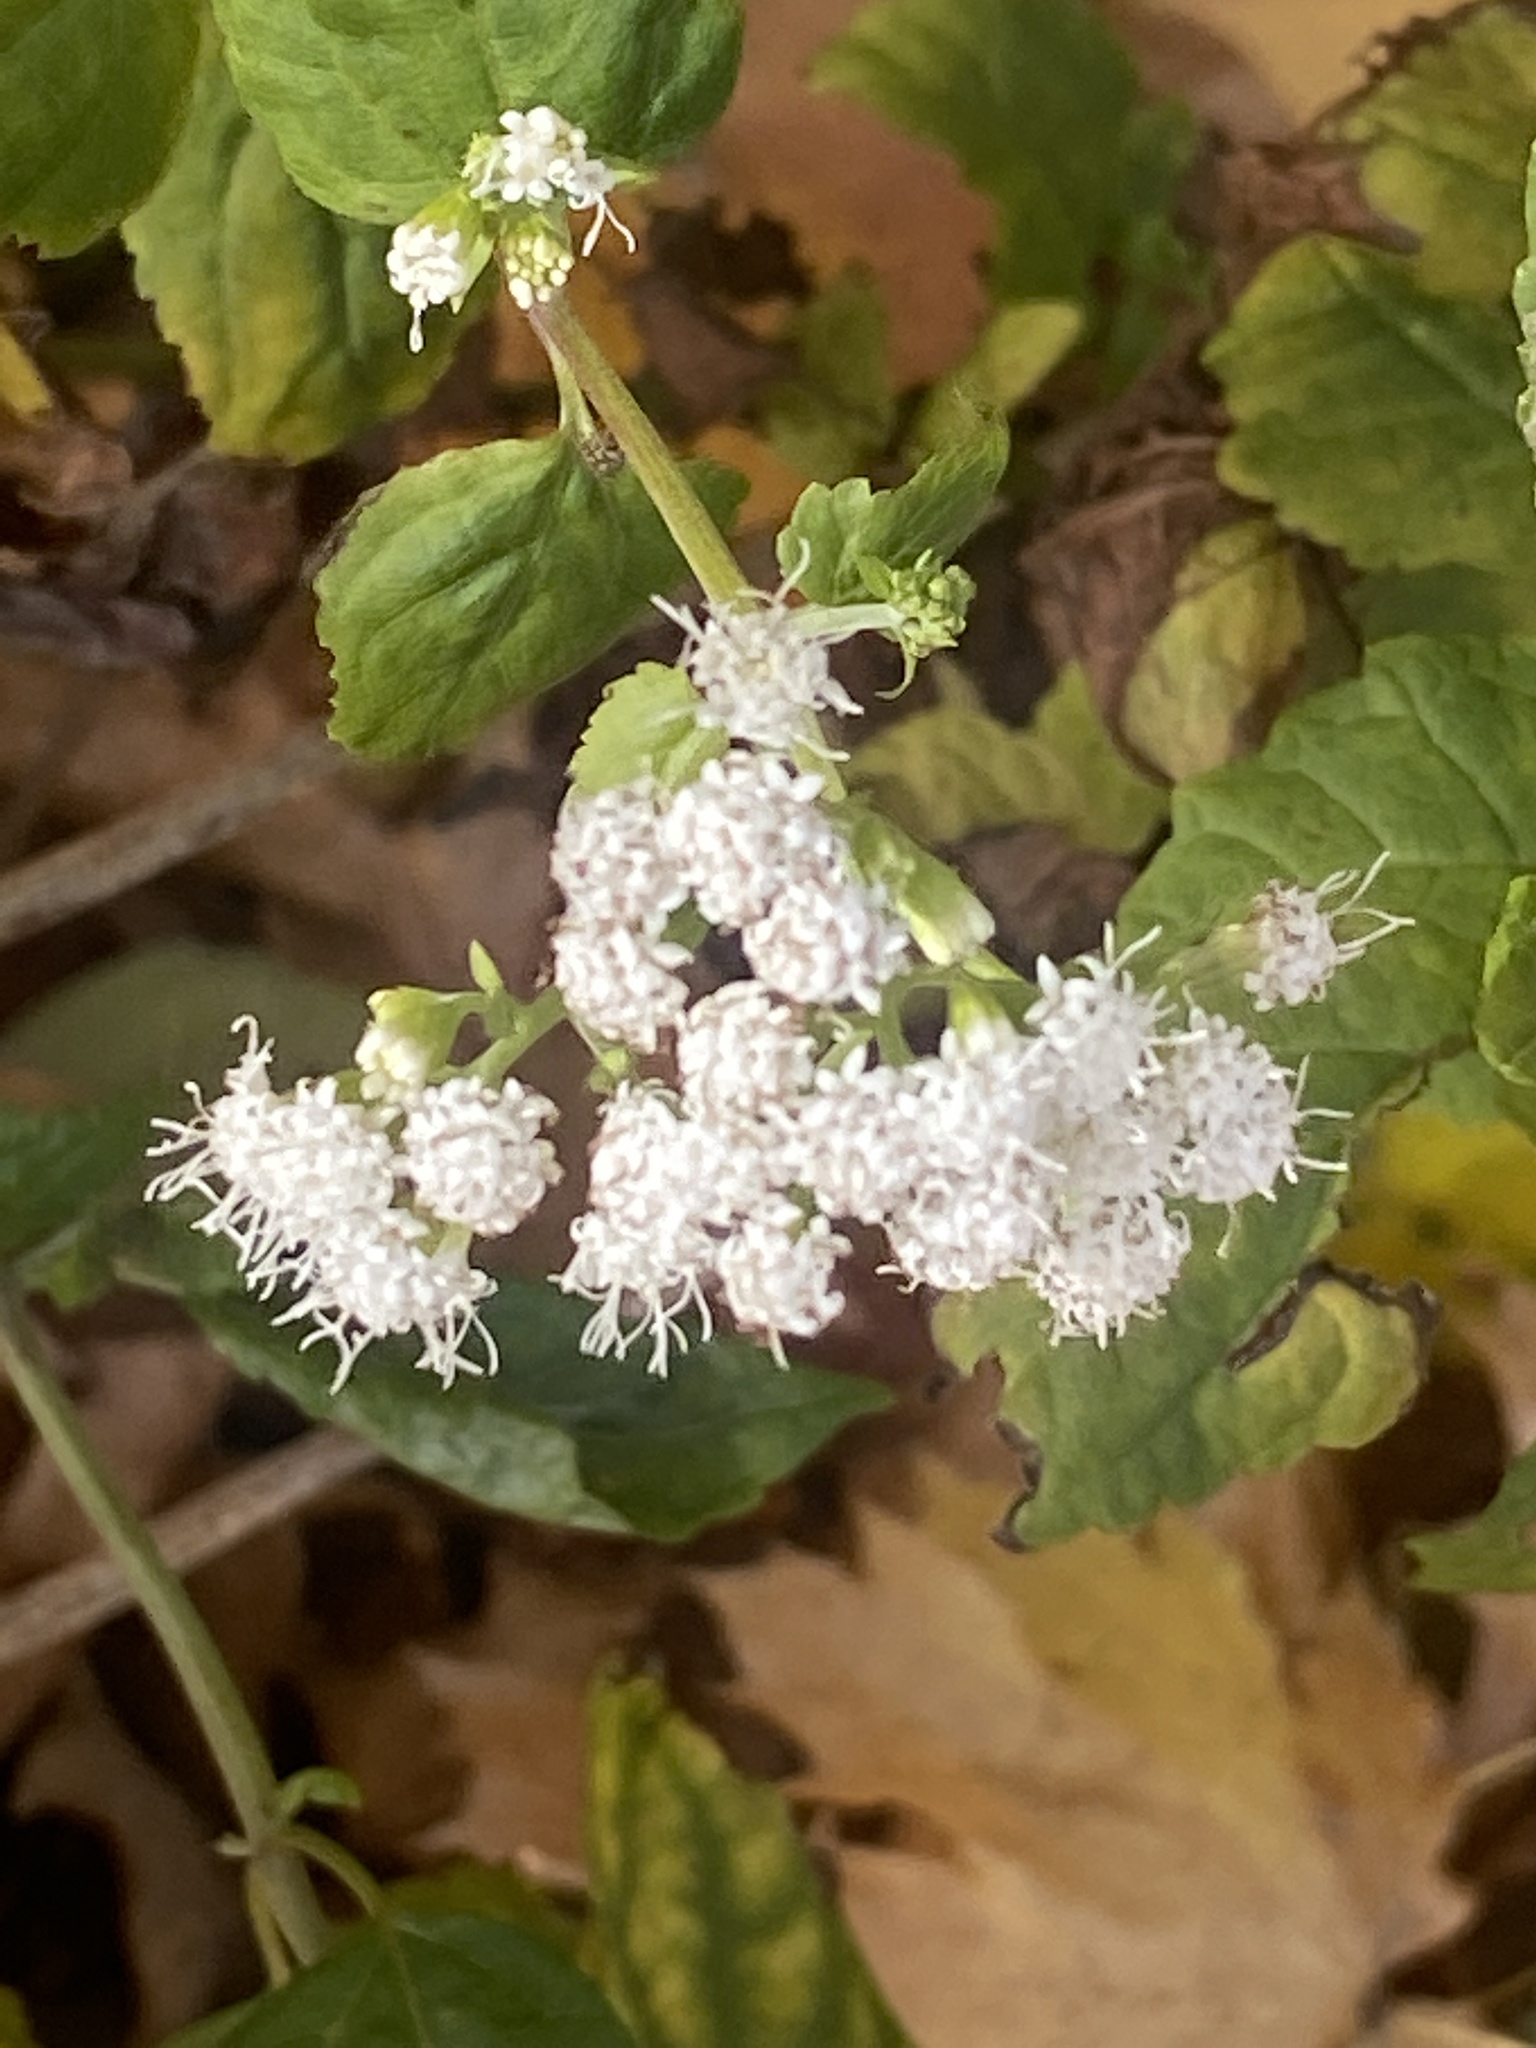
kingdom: Plantae
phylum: Tracheophyta
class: Magnoliopsida
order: Asterales
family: Asteraceae
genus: Ageratina
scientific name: Ageratina altissima
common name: White snakeroot
